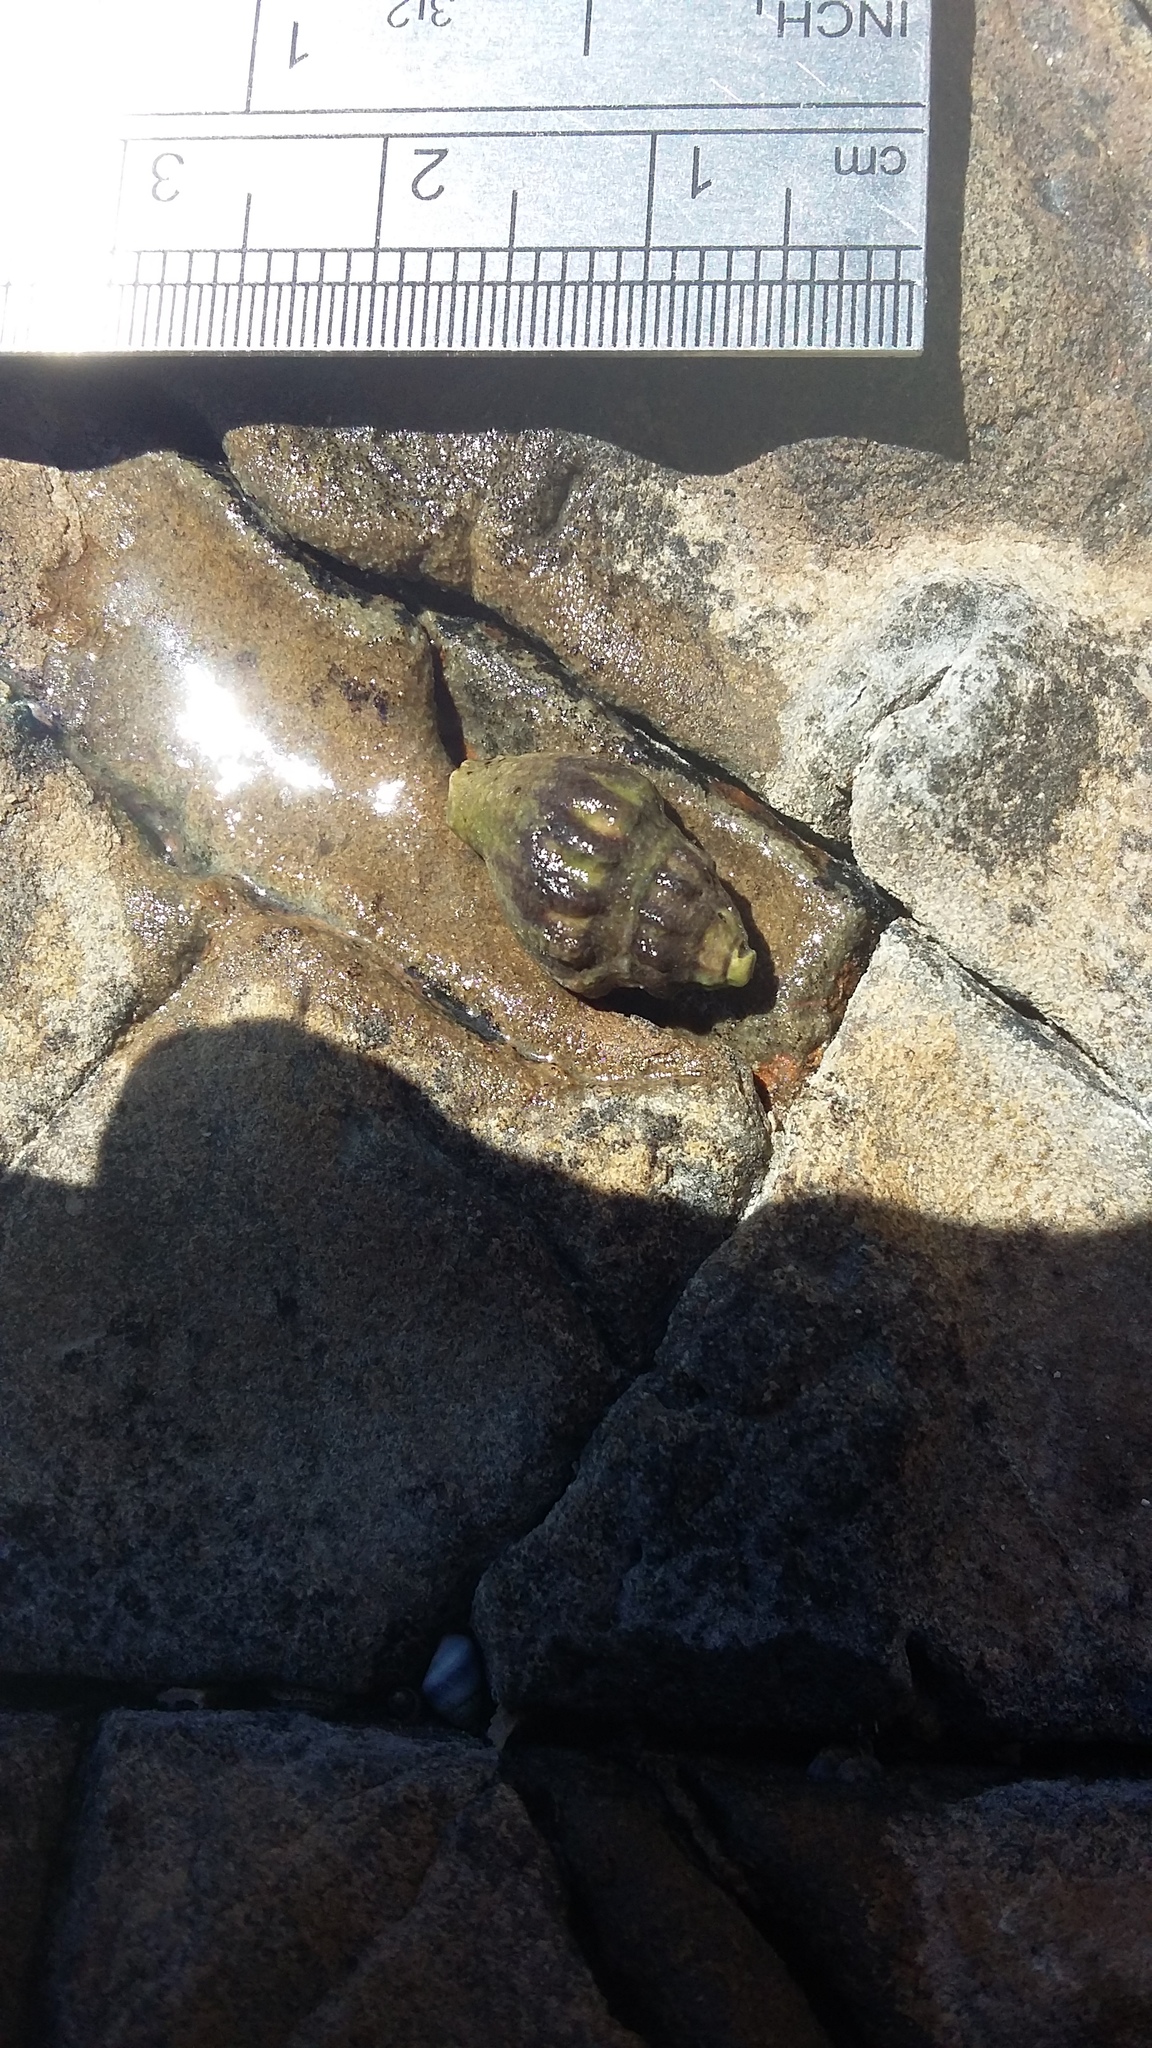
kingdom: Animalia
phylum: Mollusca
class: Gastropoda
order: Neogastropoda
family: Cominellidae
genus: Cominella
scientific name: Cominella glandiformis
